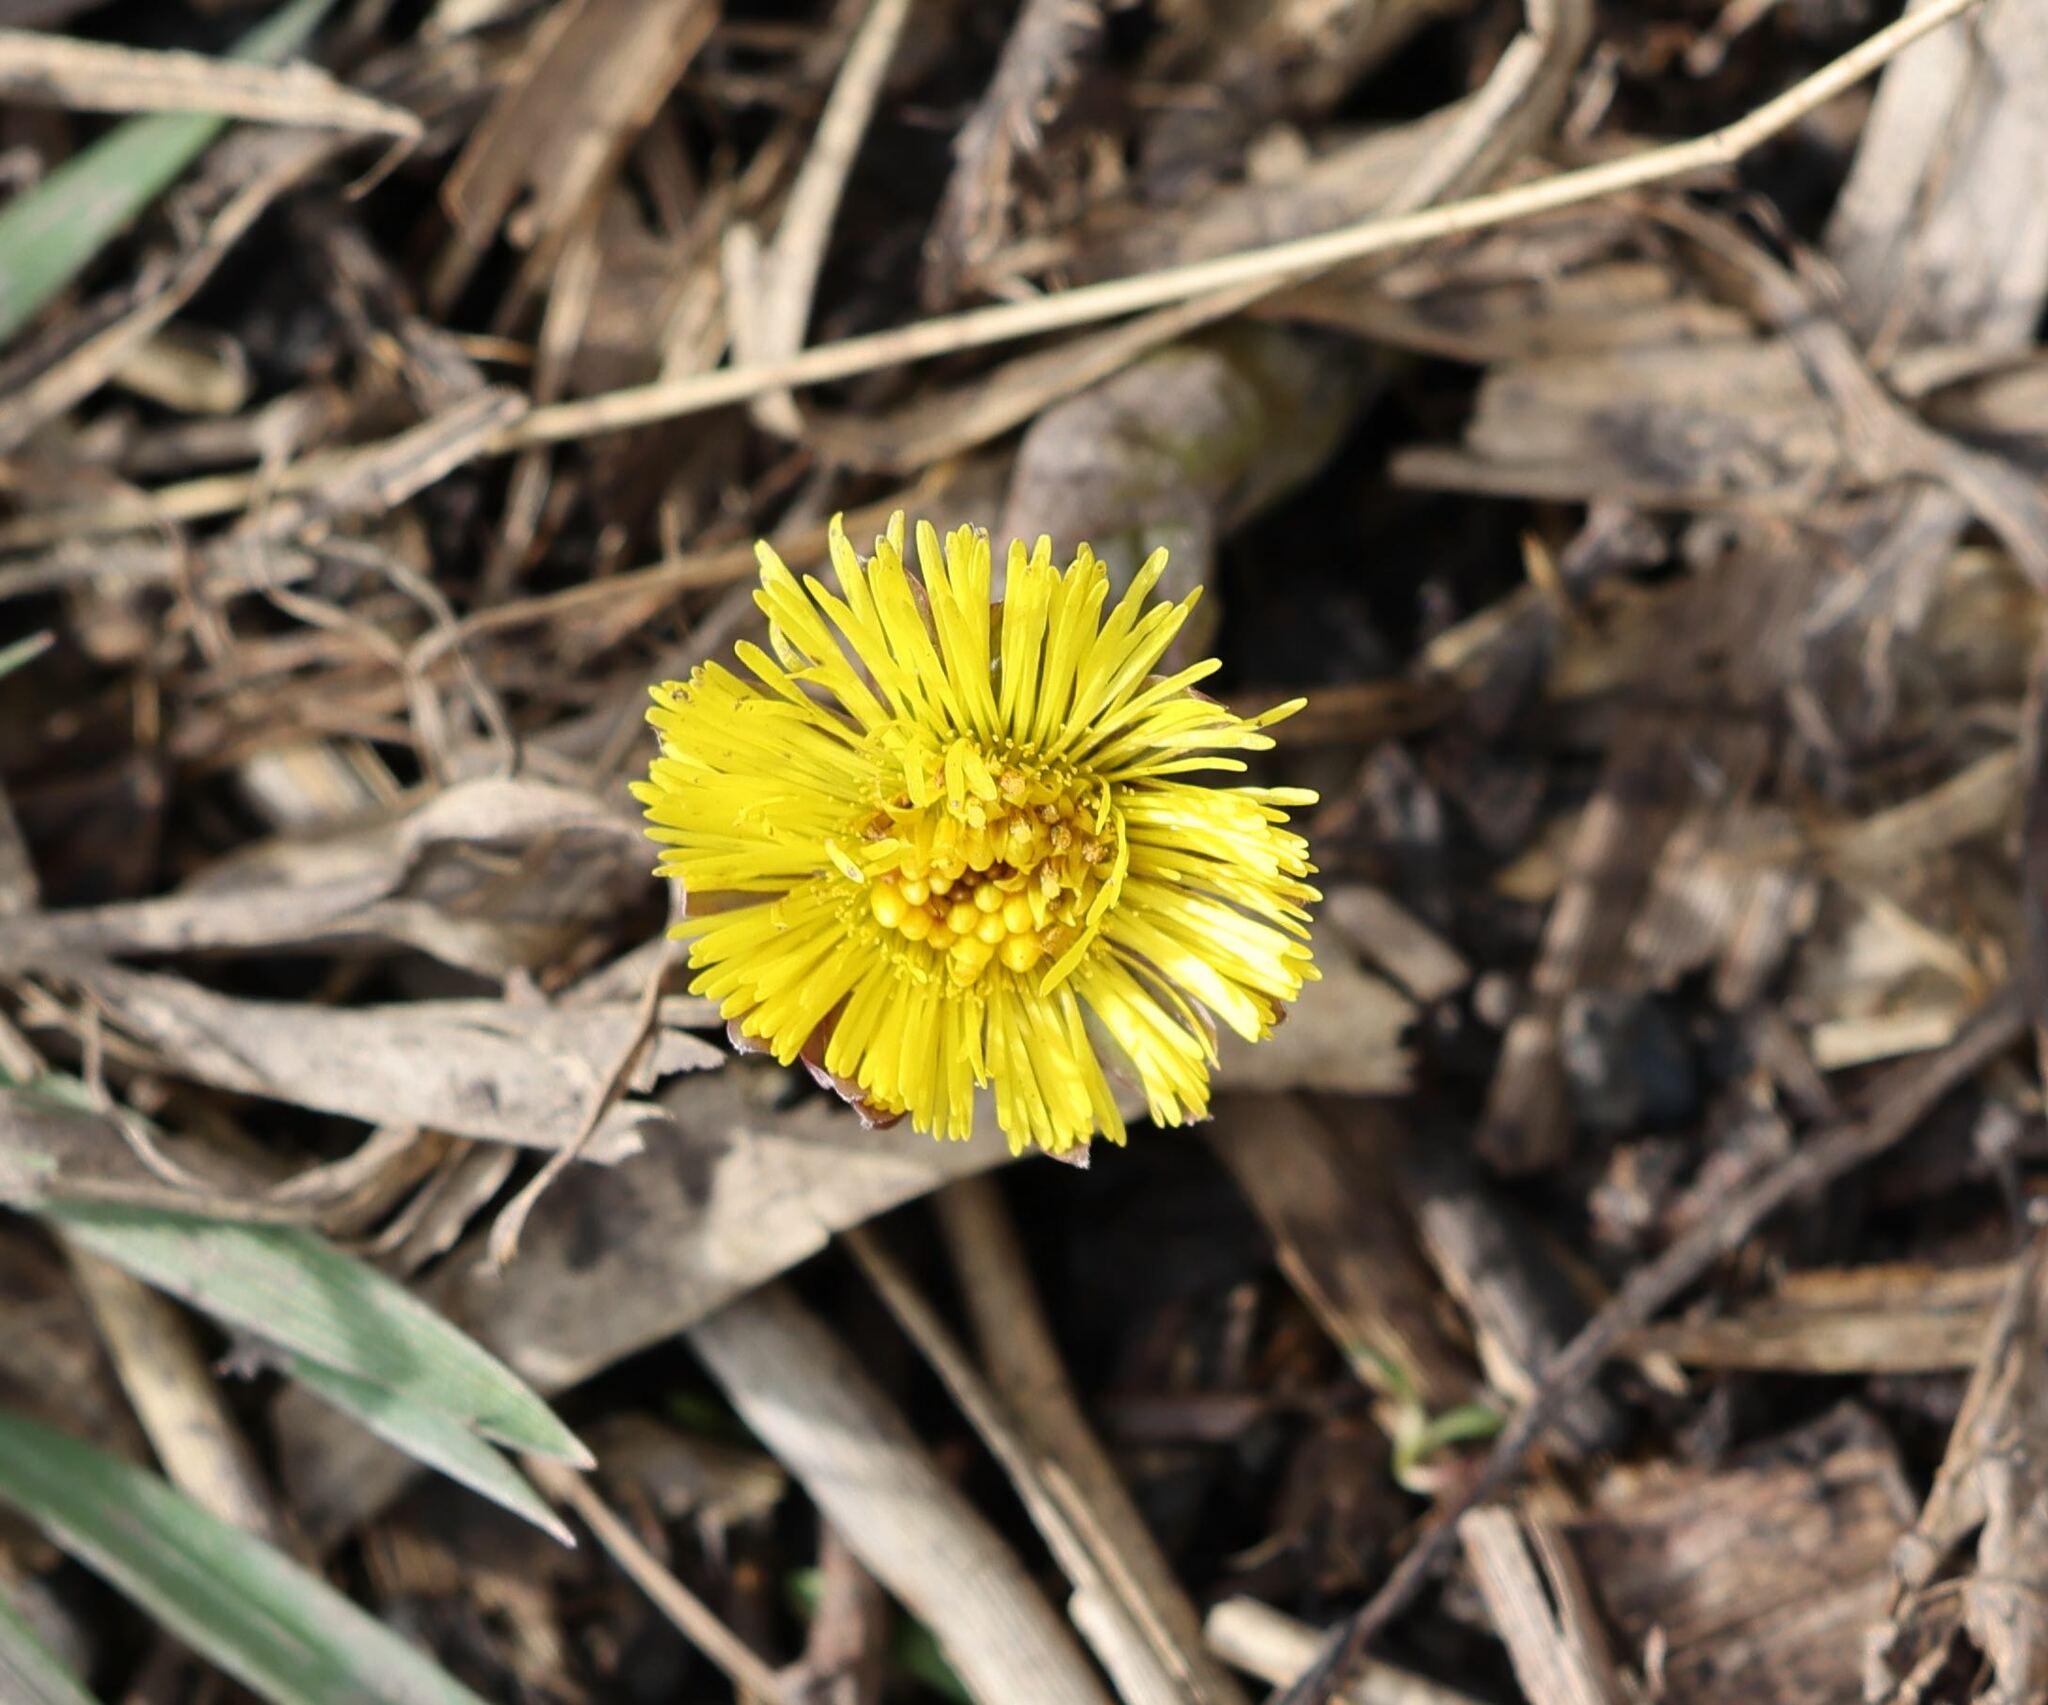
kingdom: Plantae
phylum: Tracheophyta
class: Magnoliopsida
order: Asterales
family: Asteraceae
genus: Tussilago
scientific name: Tussilago farfara
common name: Coltsfoot
